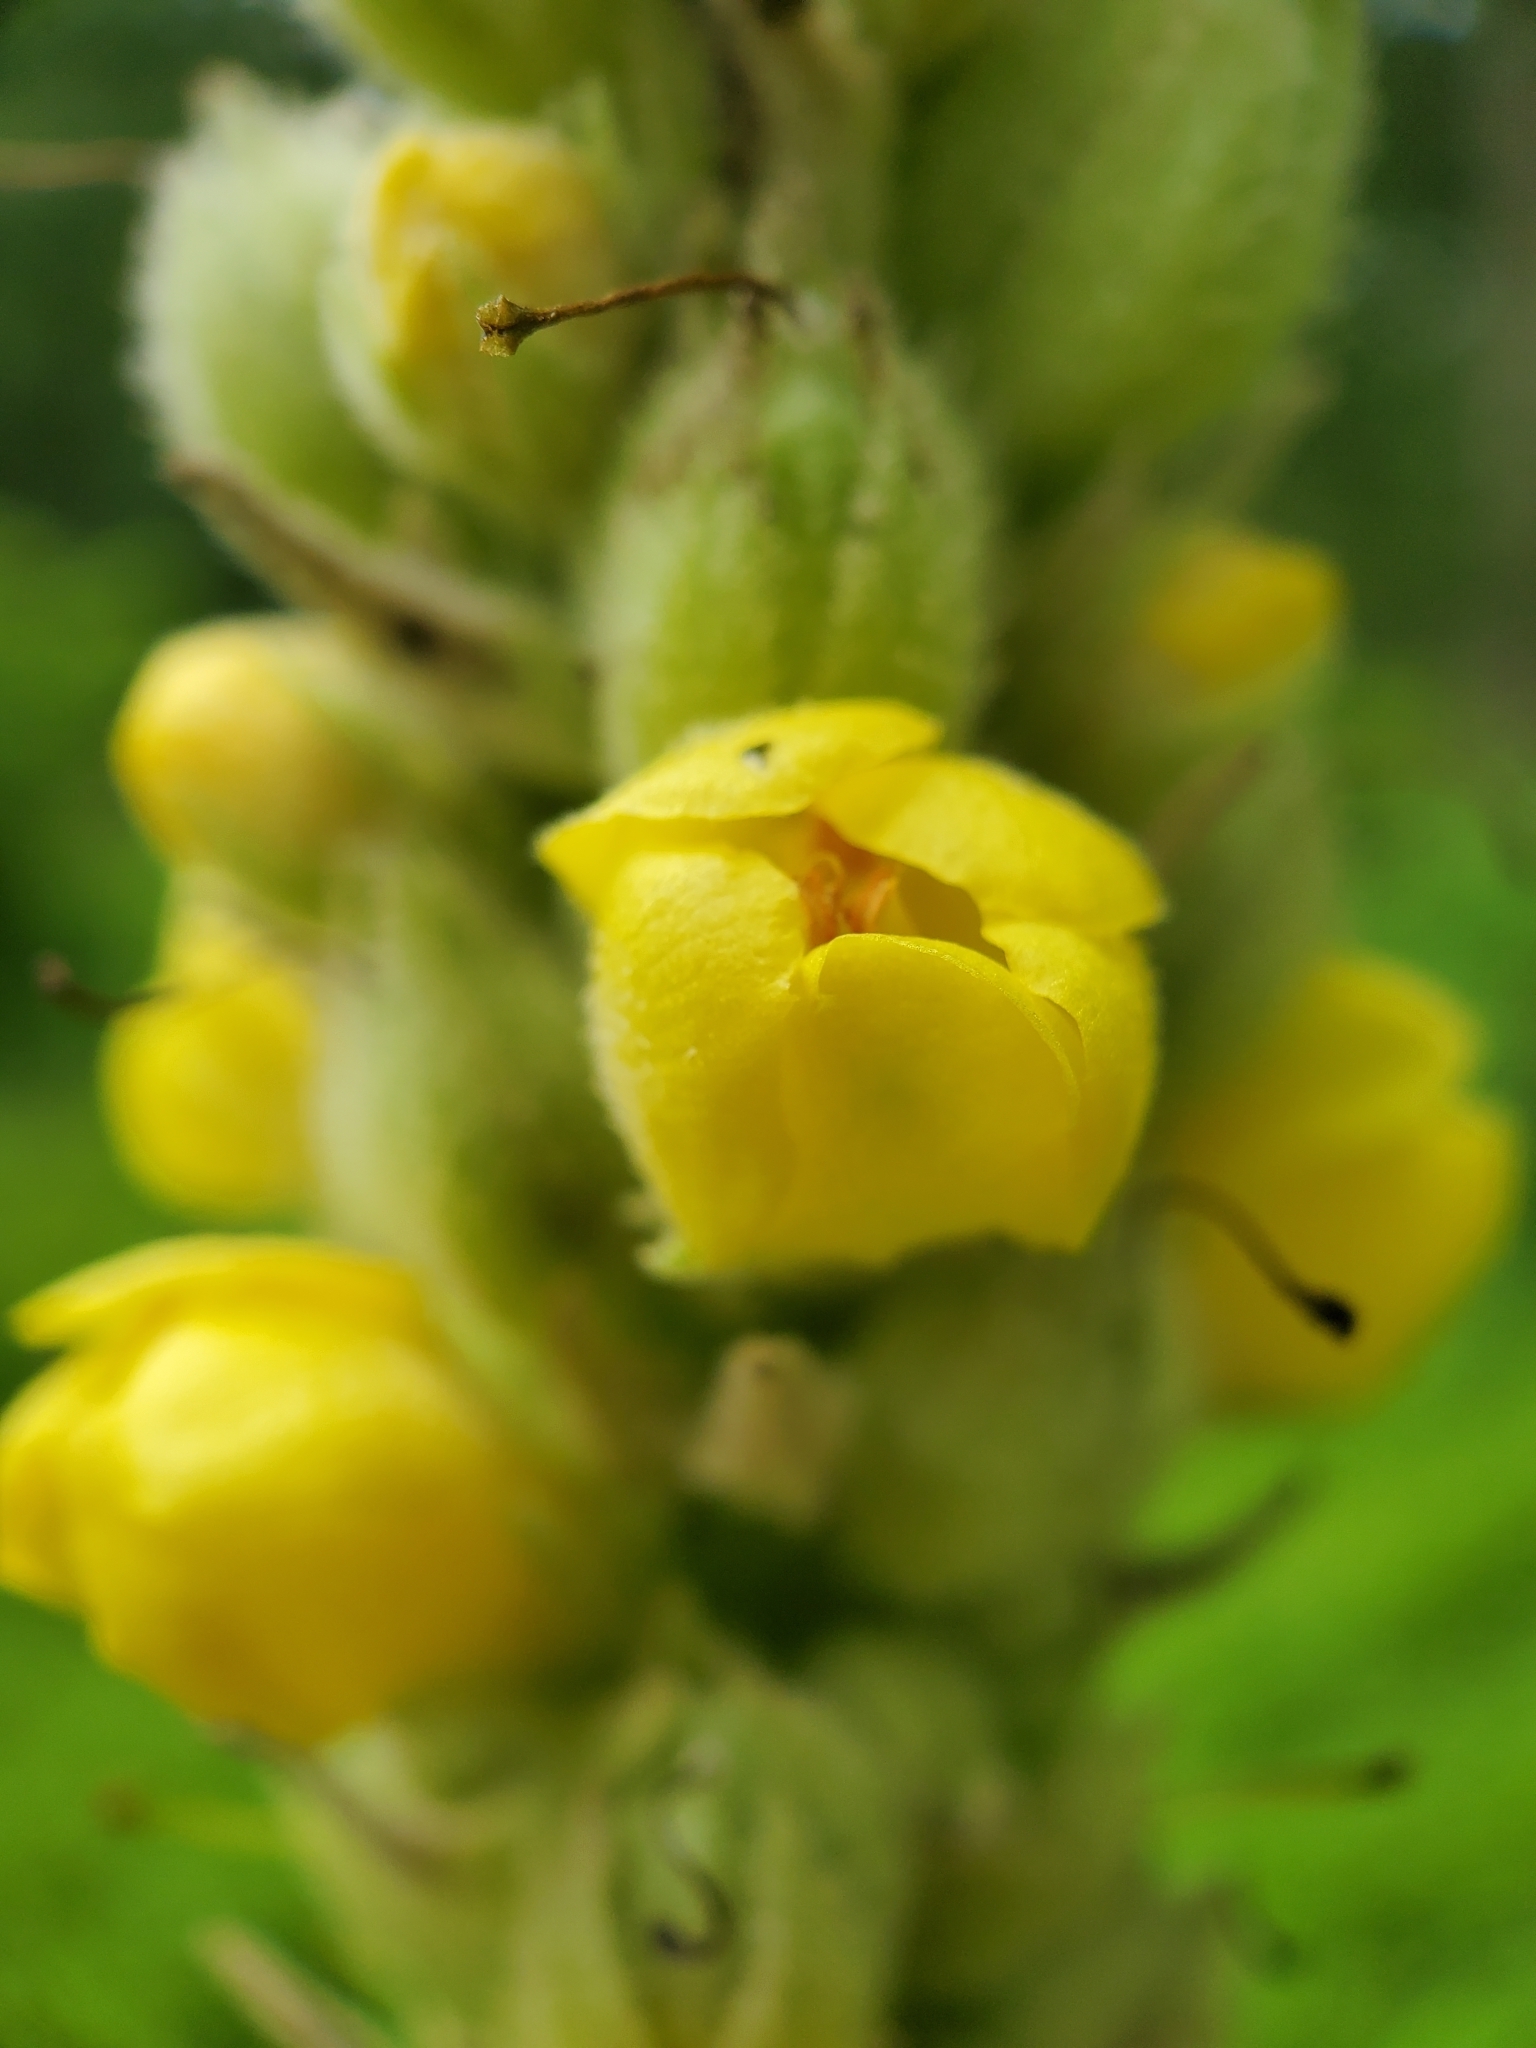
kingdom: Plantae
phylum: Tracheophyta
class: Magnoliopsida
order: Lamiales
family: Scrophulariaceae
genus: Verbascum
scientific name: Verbascum thapsus
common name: Common mullein
